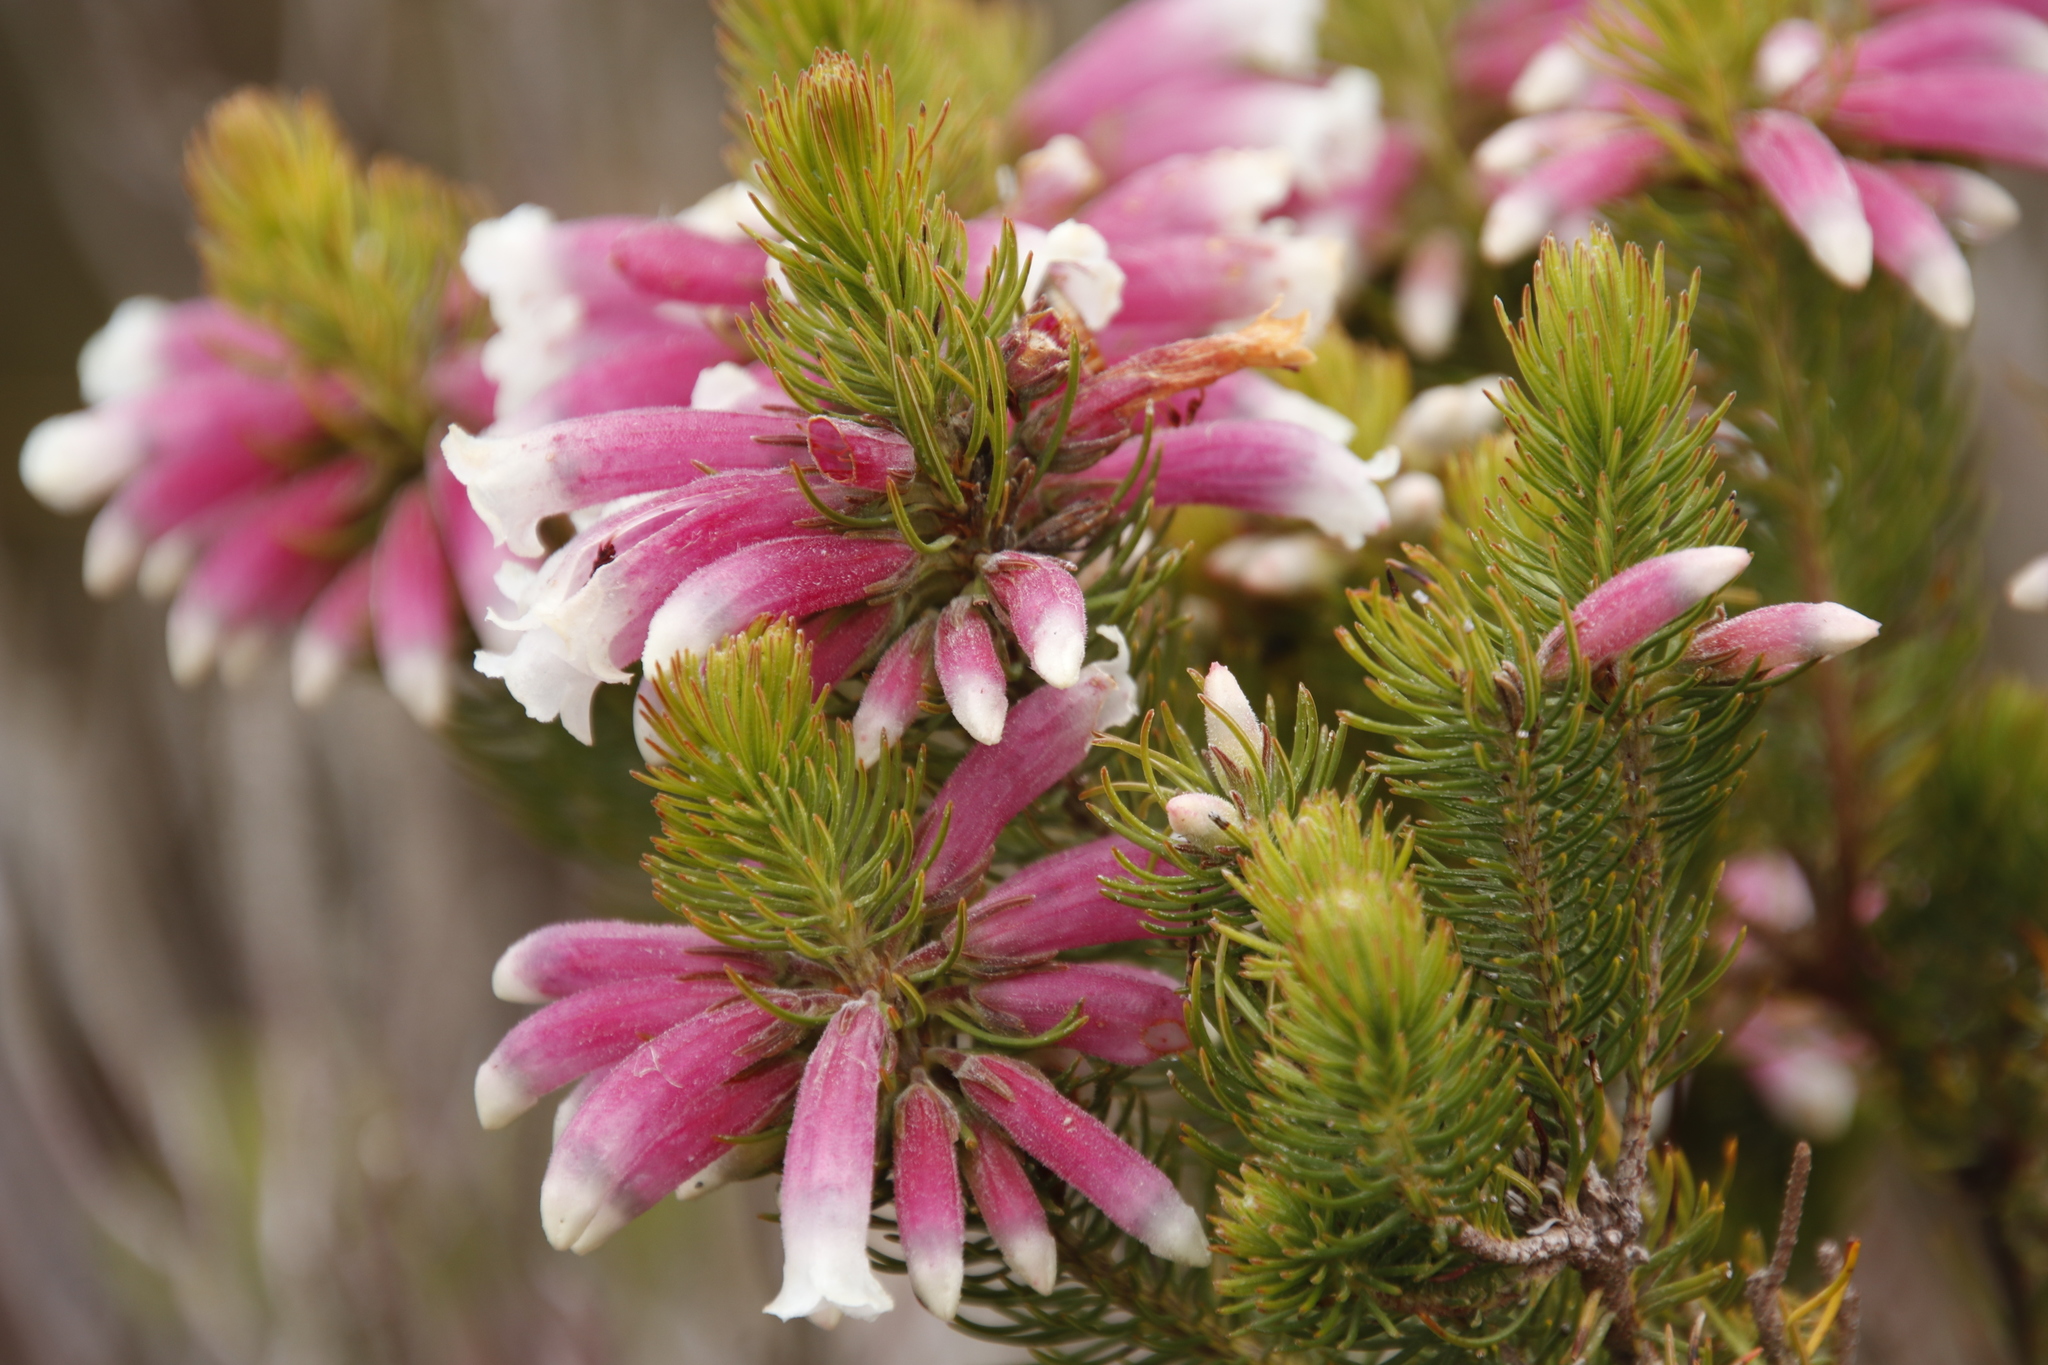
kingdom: Plantae
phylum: Tracheophyta
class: Magnoliopsida
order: Ericales
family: Ericaceae
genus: Erica
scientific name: Erica viscaria
